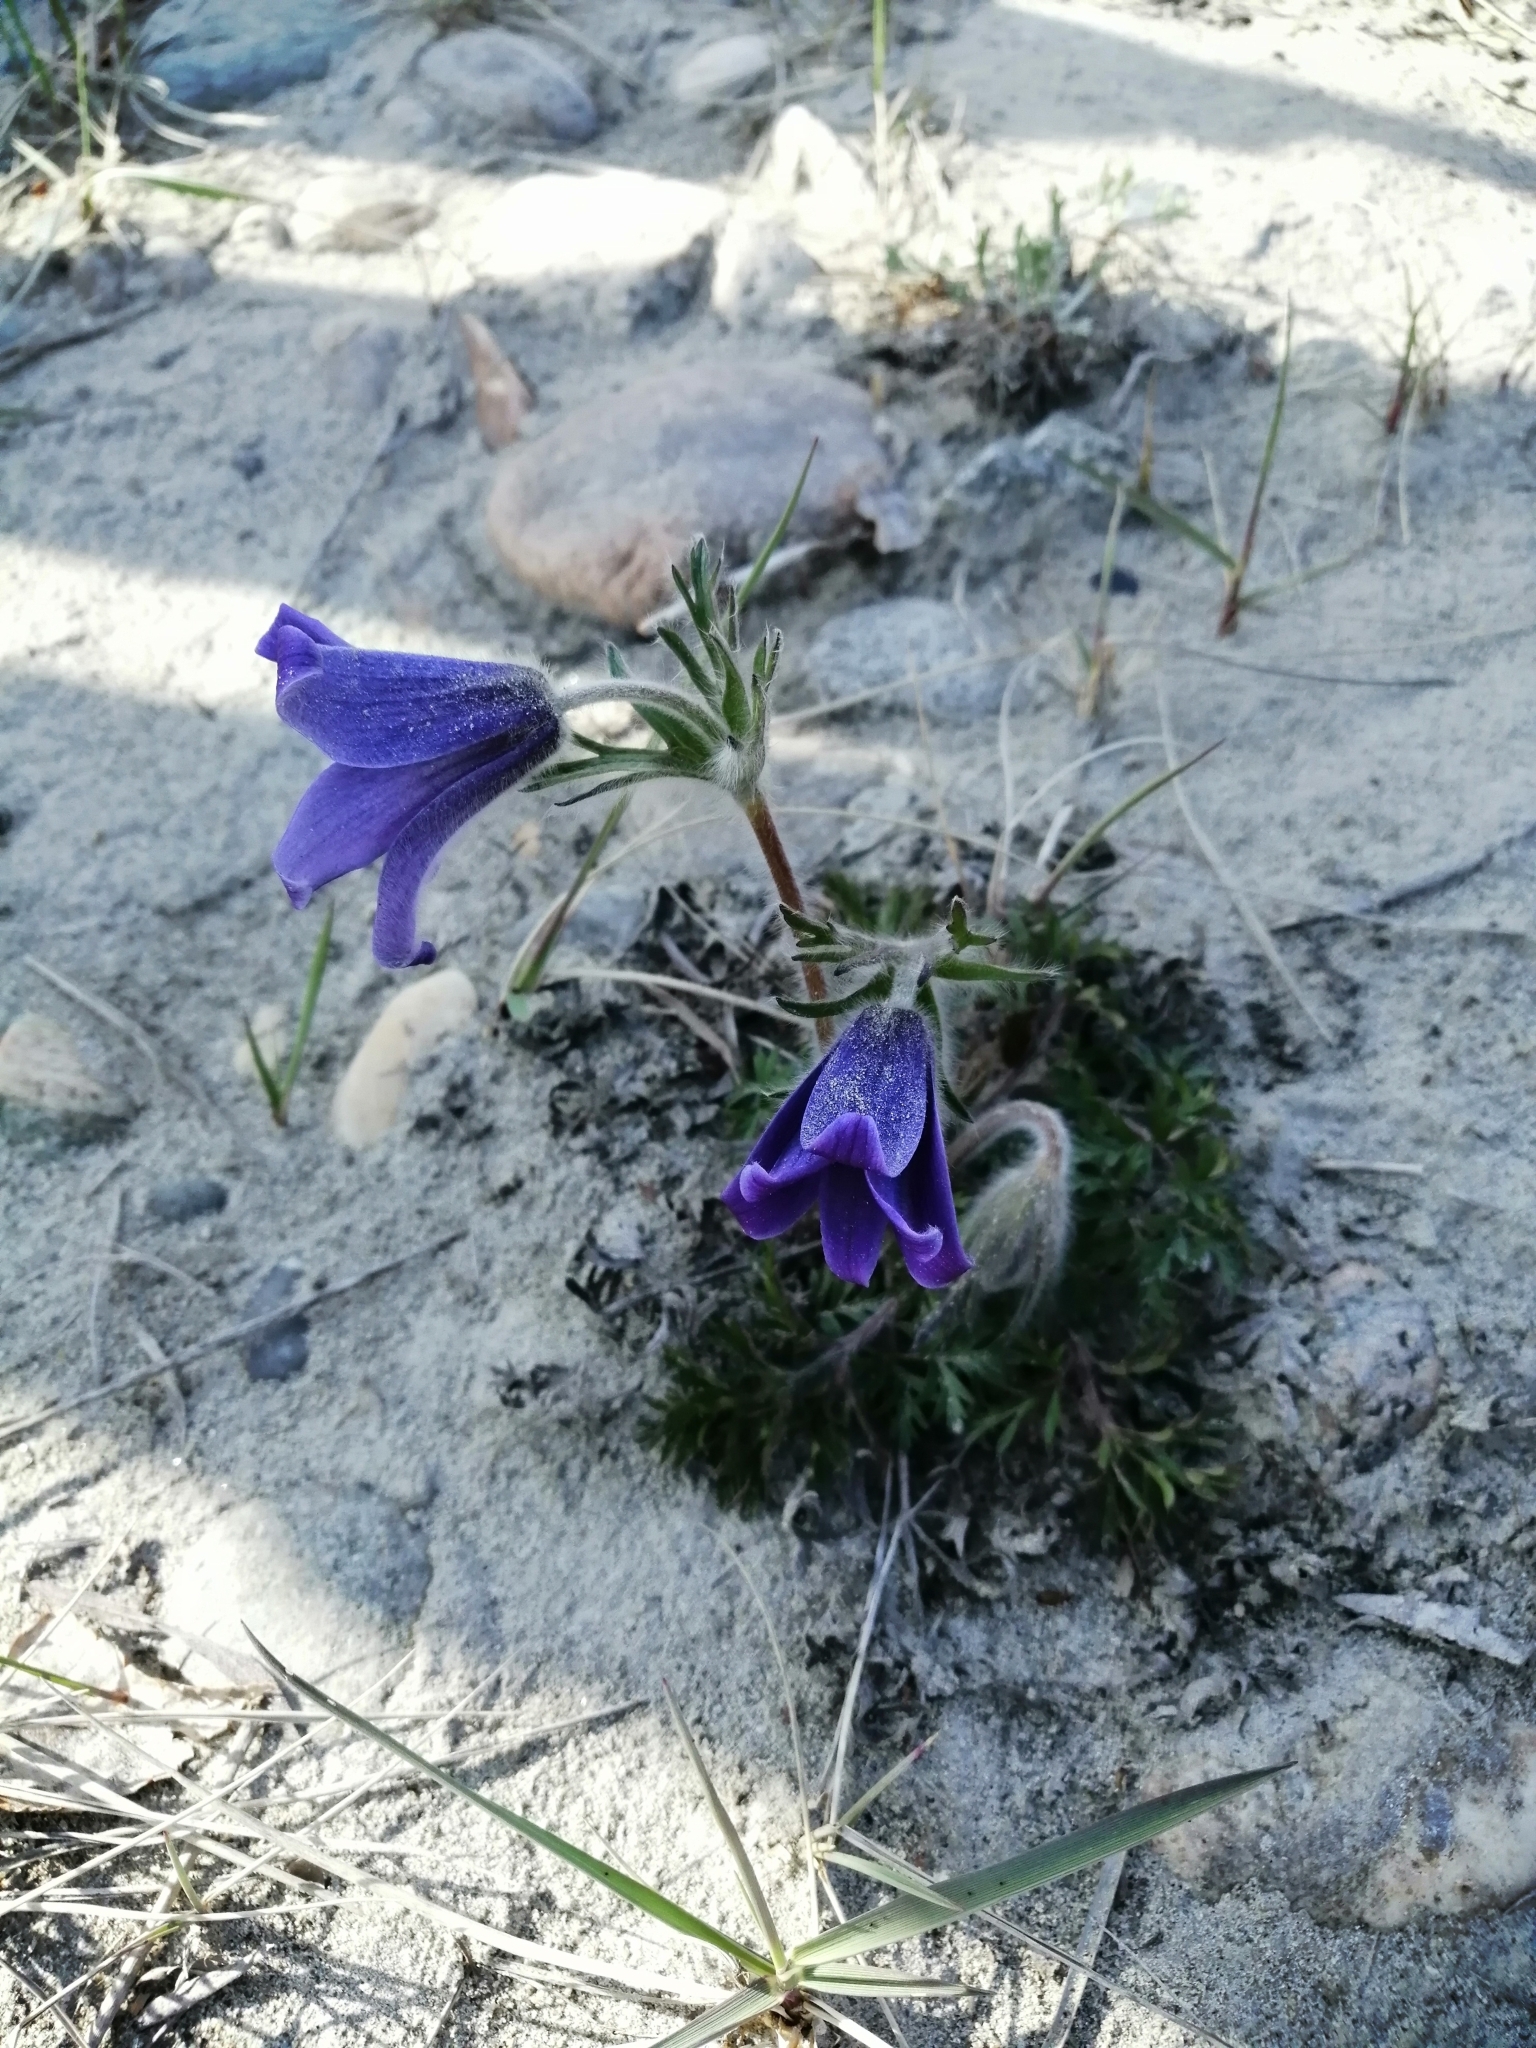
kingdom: Plantae
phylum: Tracheophyta
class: Magnoliopsida
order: Ranunculales
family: Ranunculaceae
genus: Pulsatilla
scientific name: Pulsatilla ambigua
